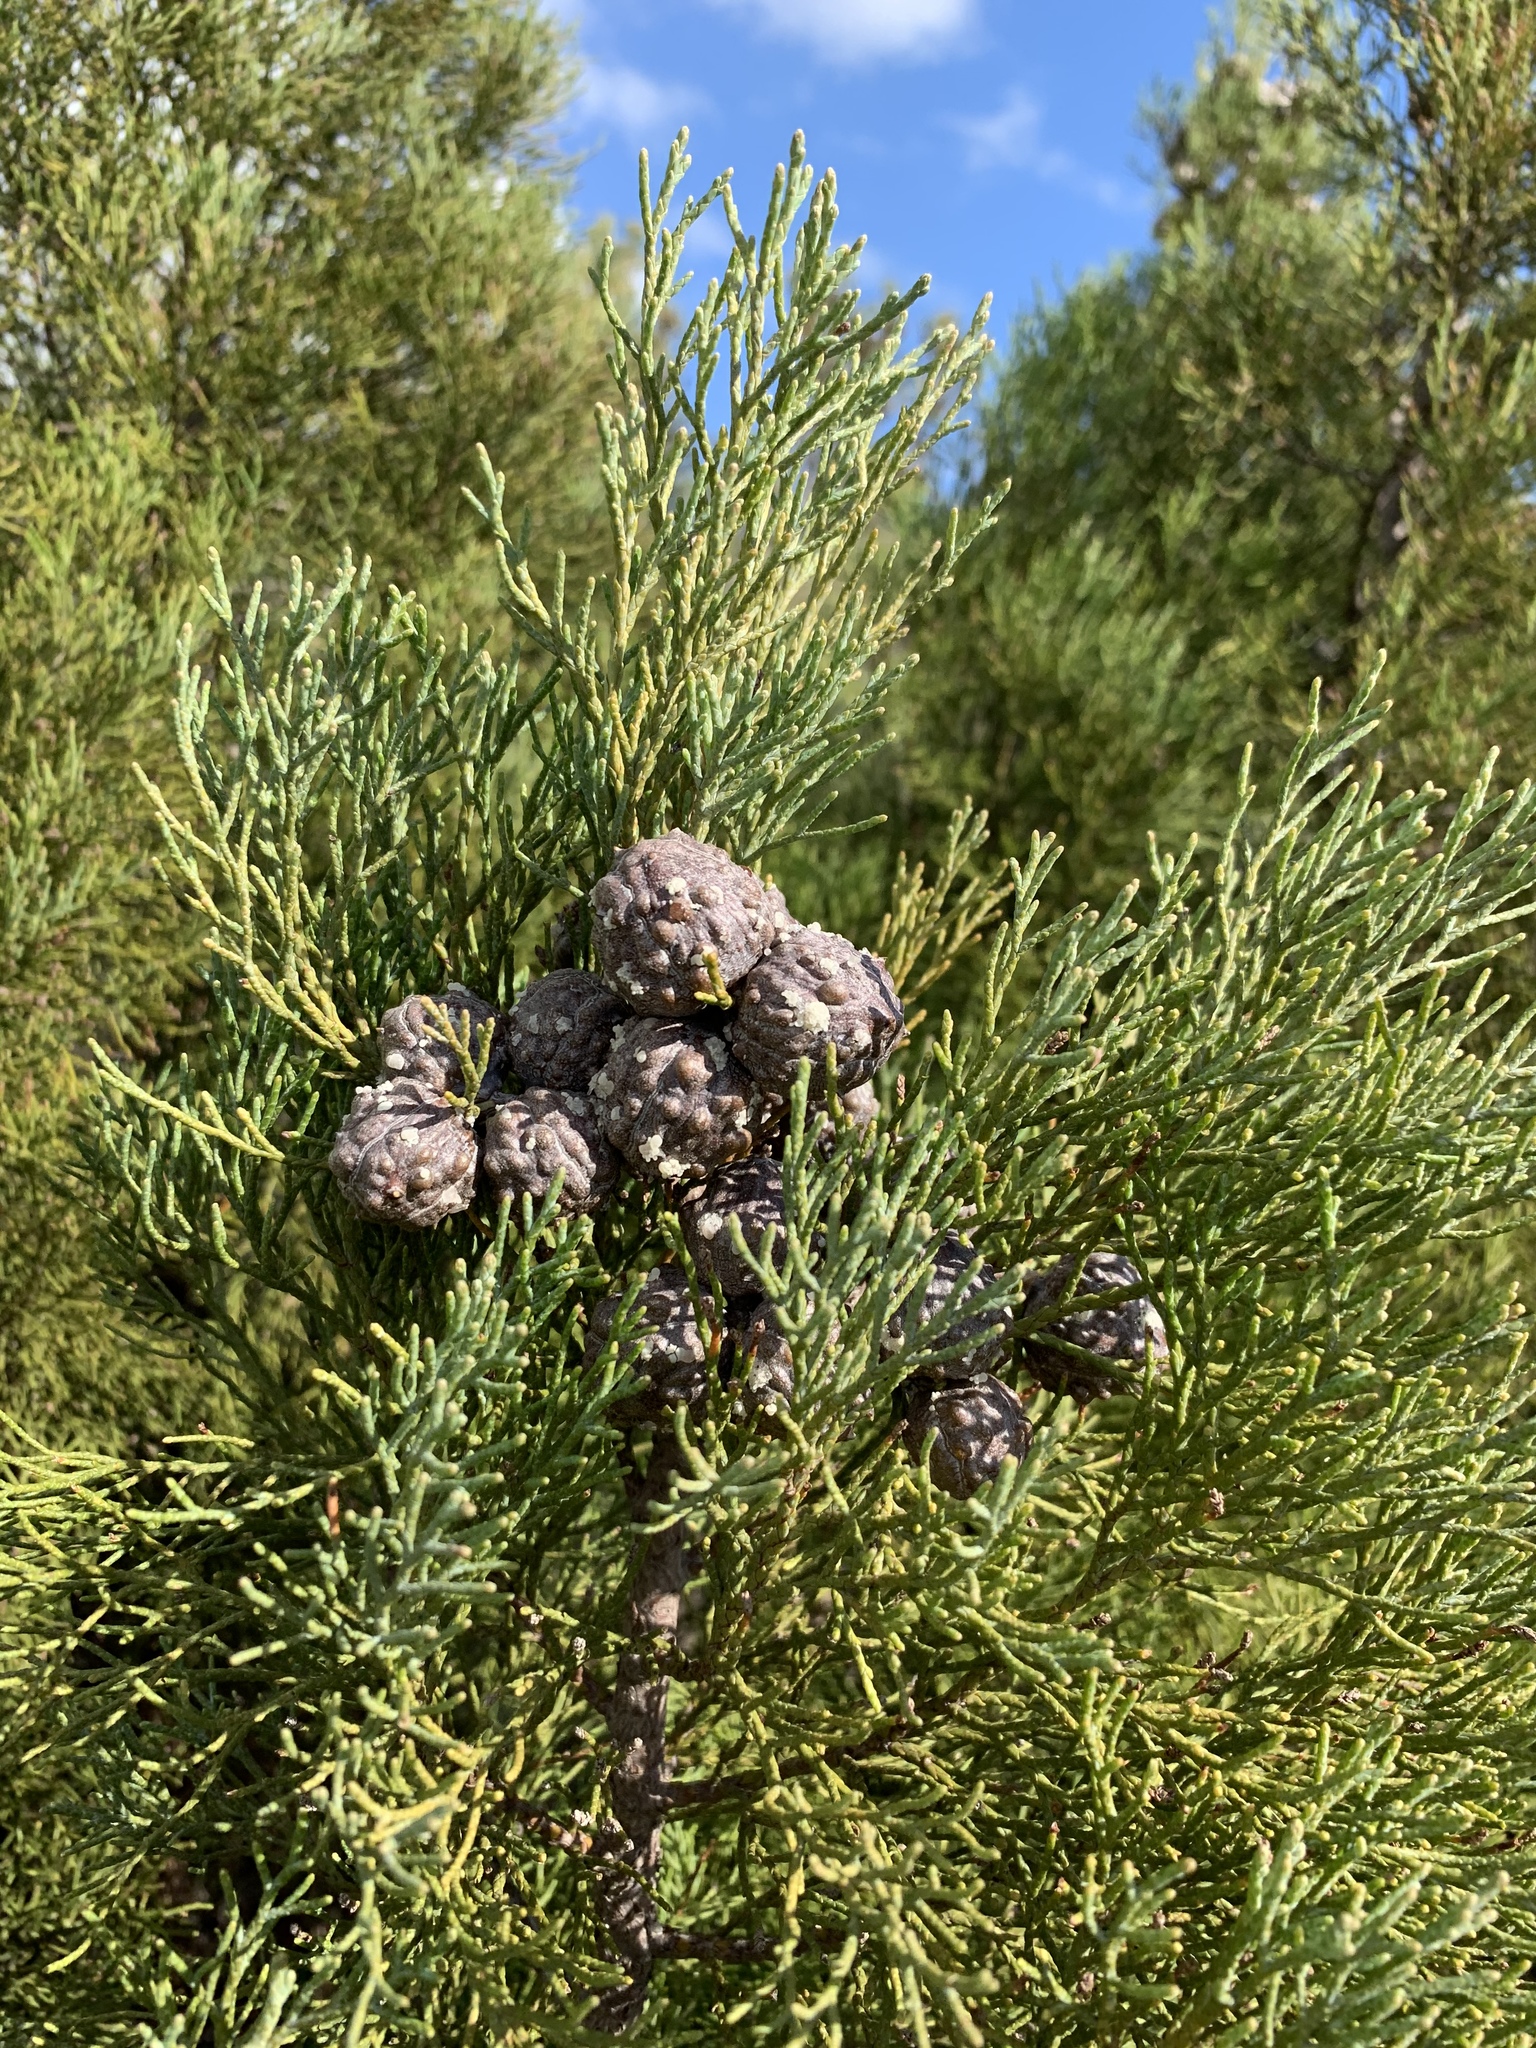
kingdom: Plantae
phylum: Tracheophyta
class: Pinopsida
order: Pinales
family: Cupressaceae
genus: Widdringtonia
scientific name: Widdringtonia nodiflora
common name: Cape cypress
